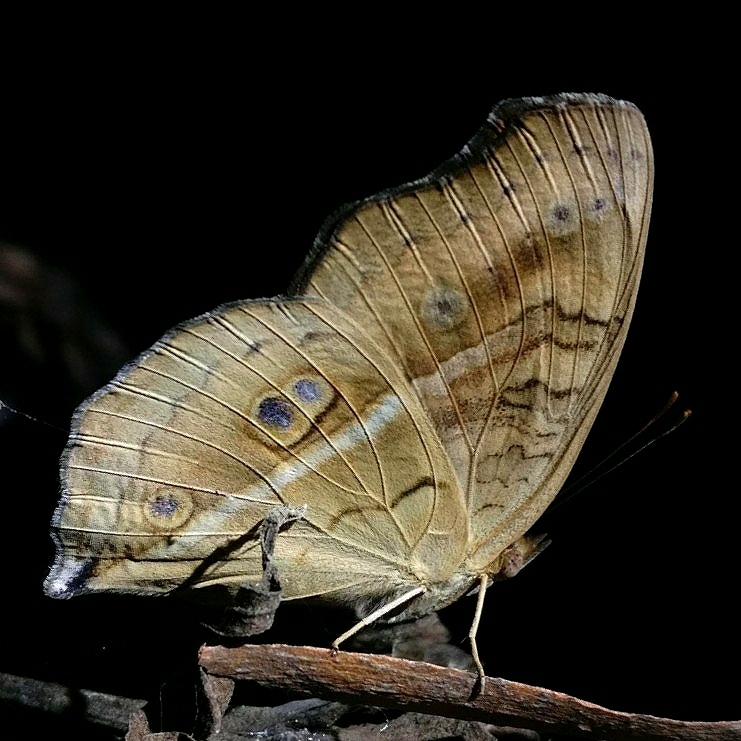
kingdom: Animalia
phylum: Arthropoda
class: Insecta
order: Lepidoptera
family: Nymphalidae
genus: Junonia
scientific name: Junonia almana
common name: Peacock pansy
